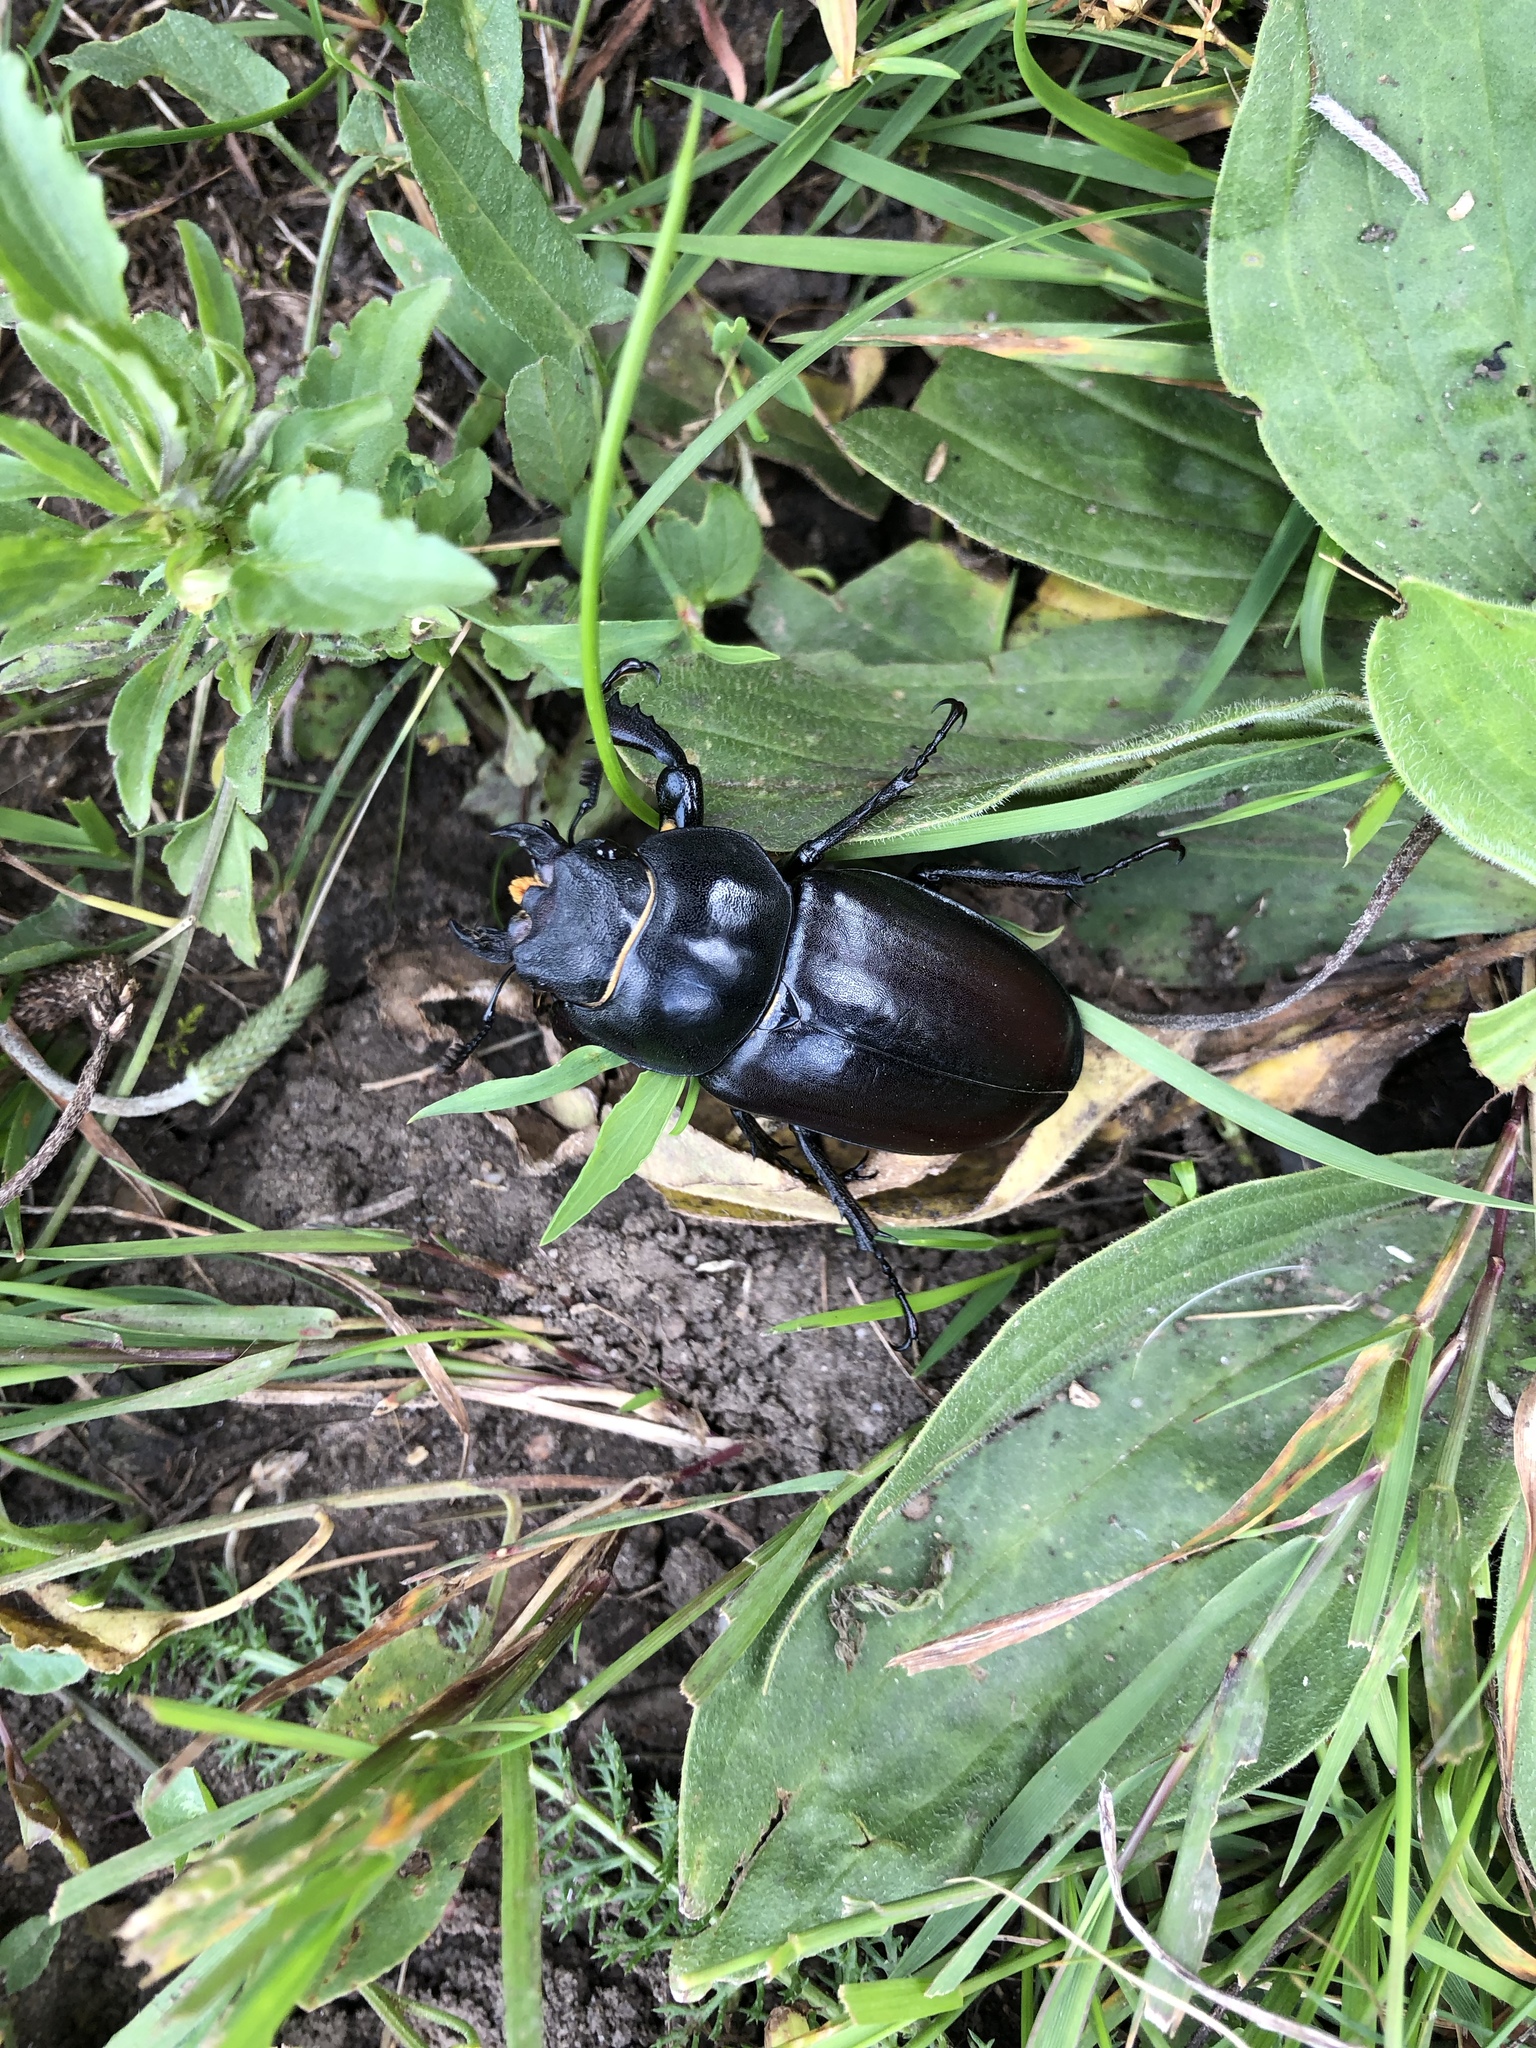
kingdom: Animalia
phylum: Arthropoda
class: Insecta
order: Coleoptera
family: Lucanidae
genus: Lucanus
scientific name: Lucanus cervus
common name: Stag beetle
